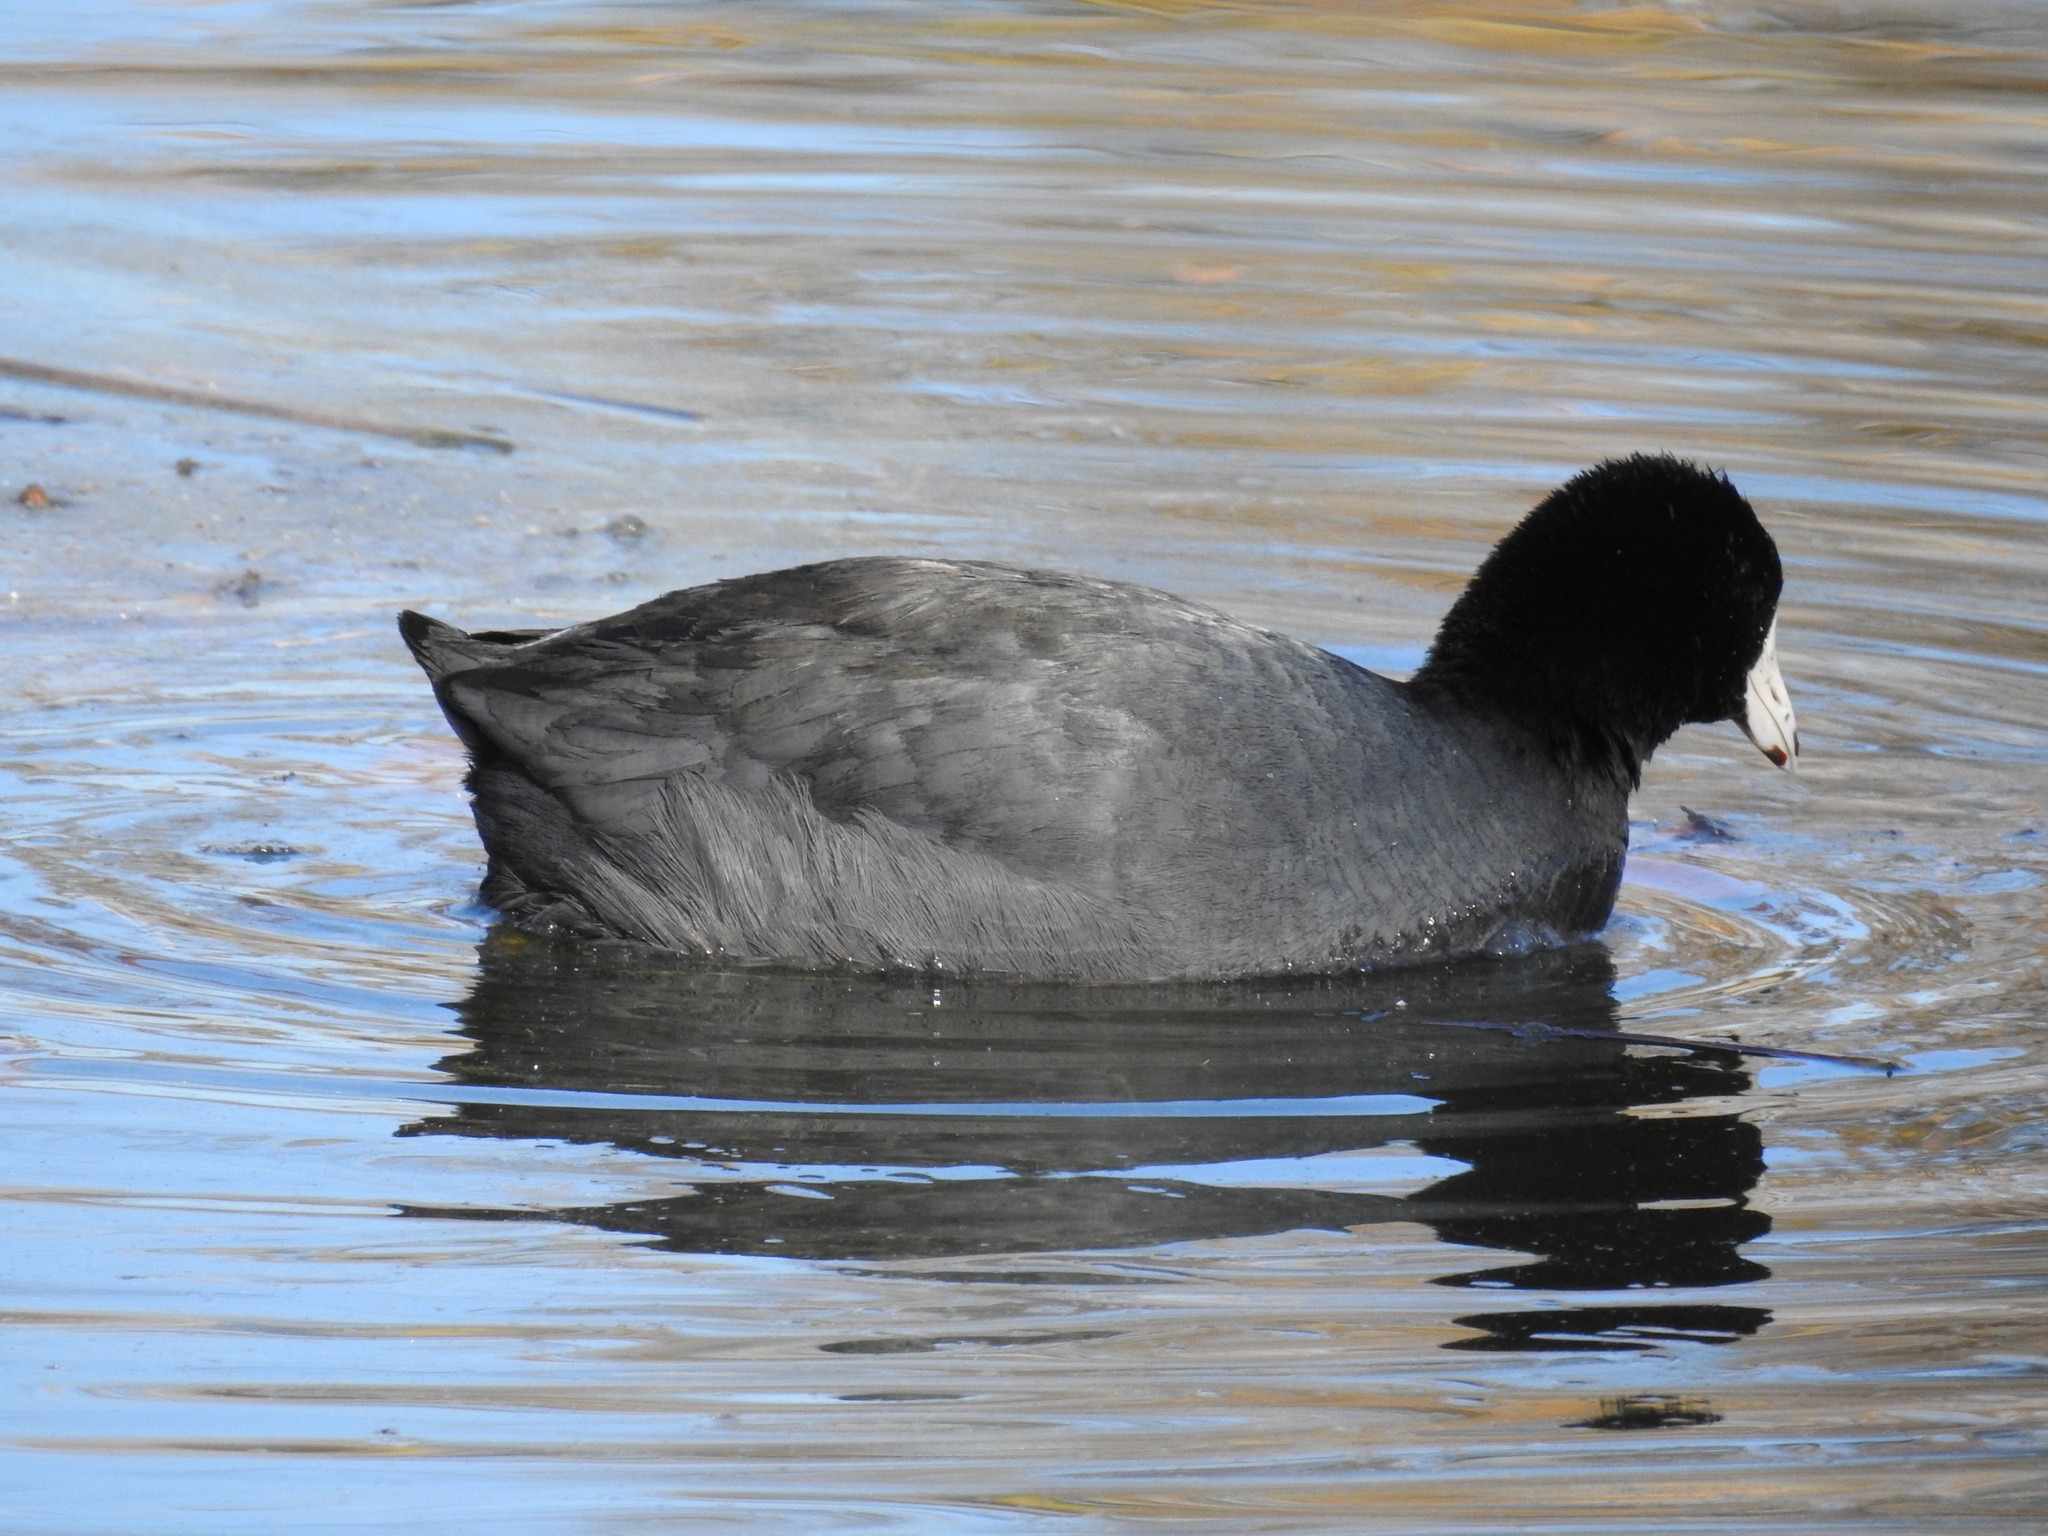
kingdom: Animalia
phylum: Chordata
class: Aves
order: Gruiformes
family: Rallidae
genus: Fulica
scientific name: Fulica americana
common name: American coot
